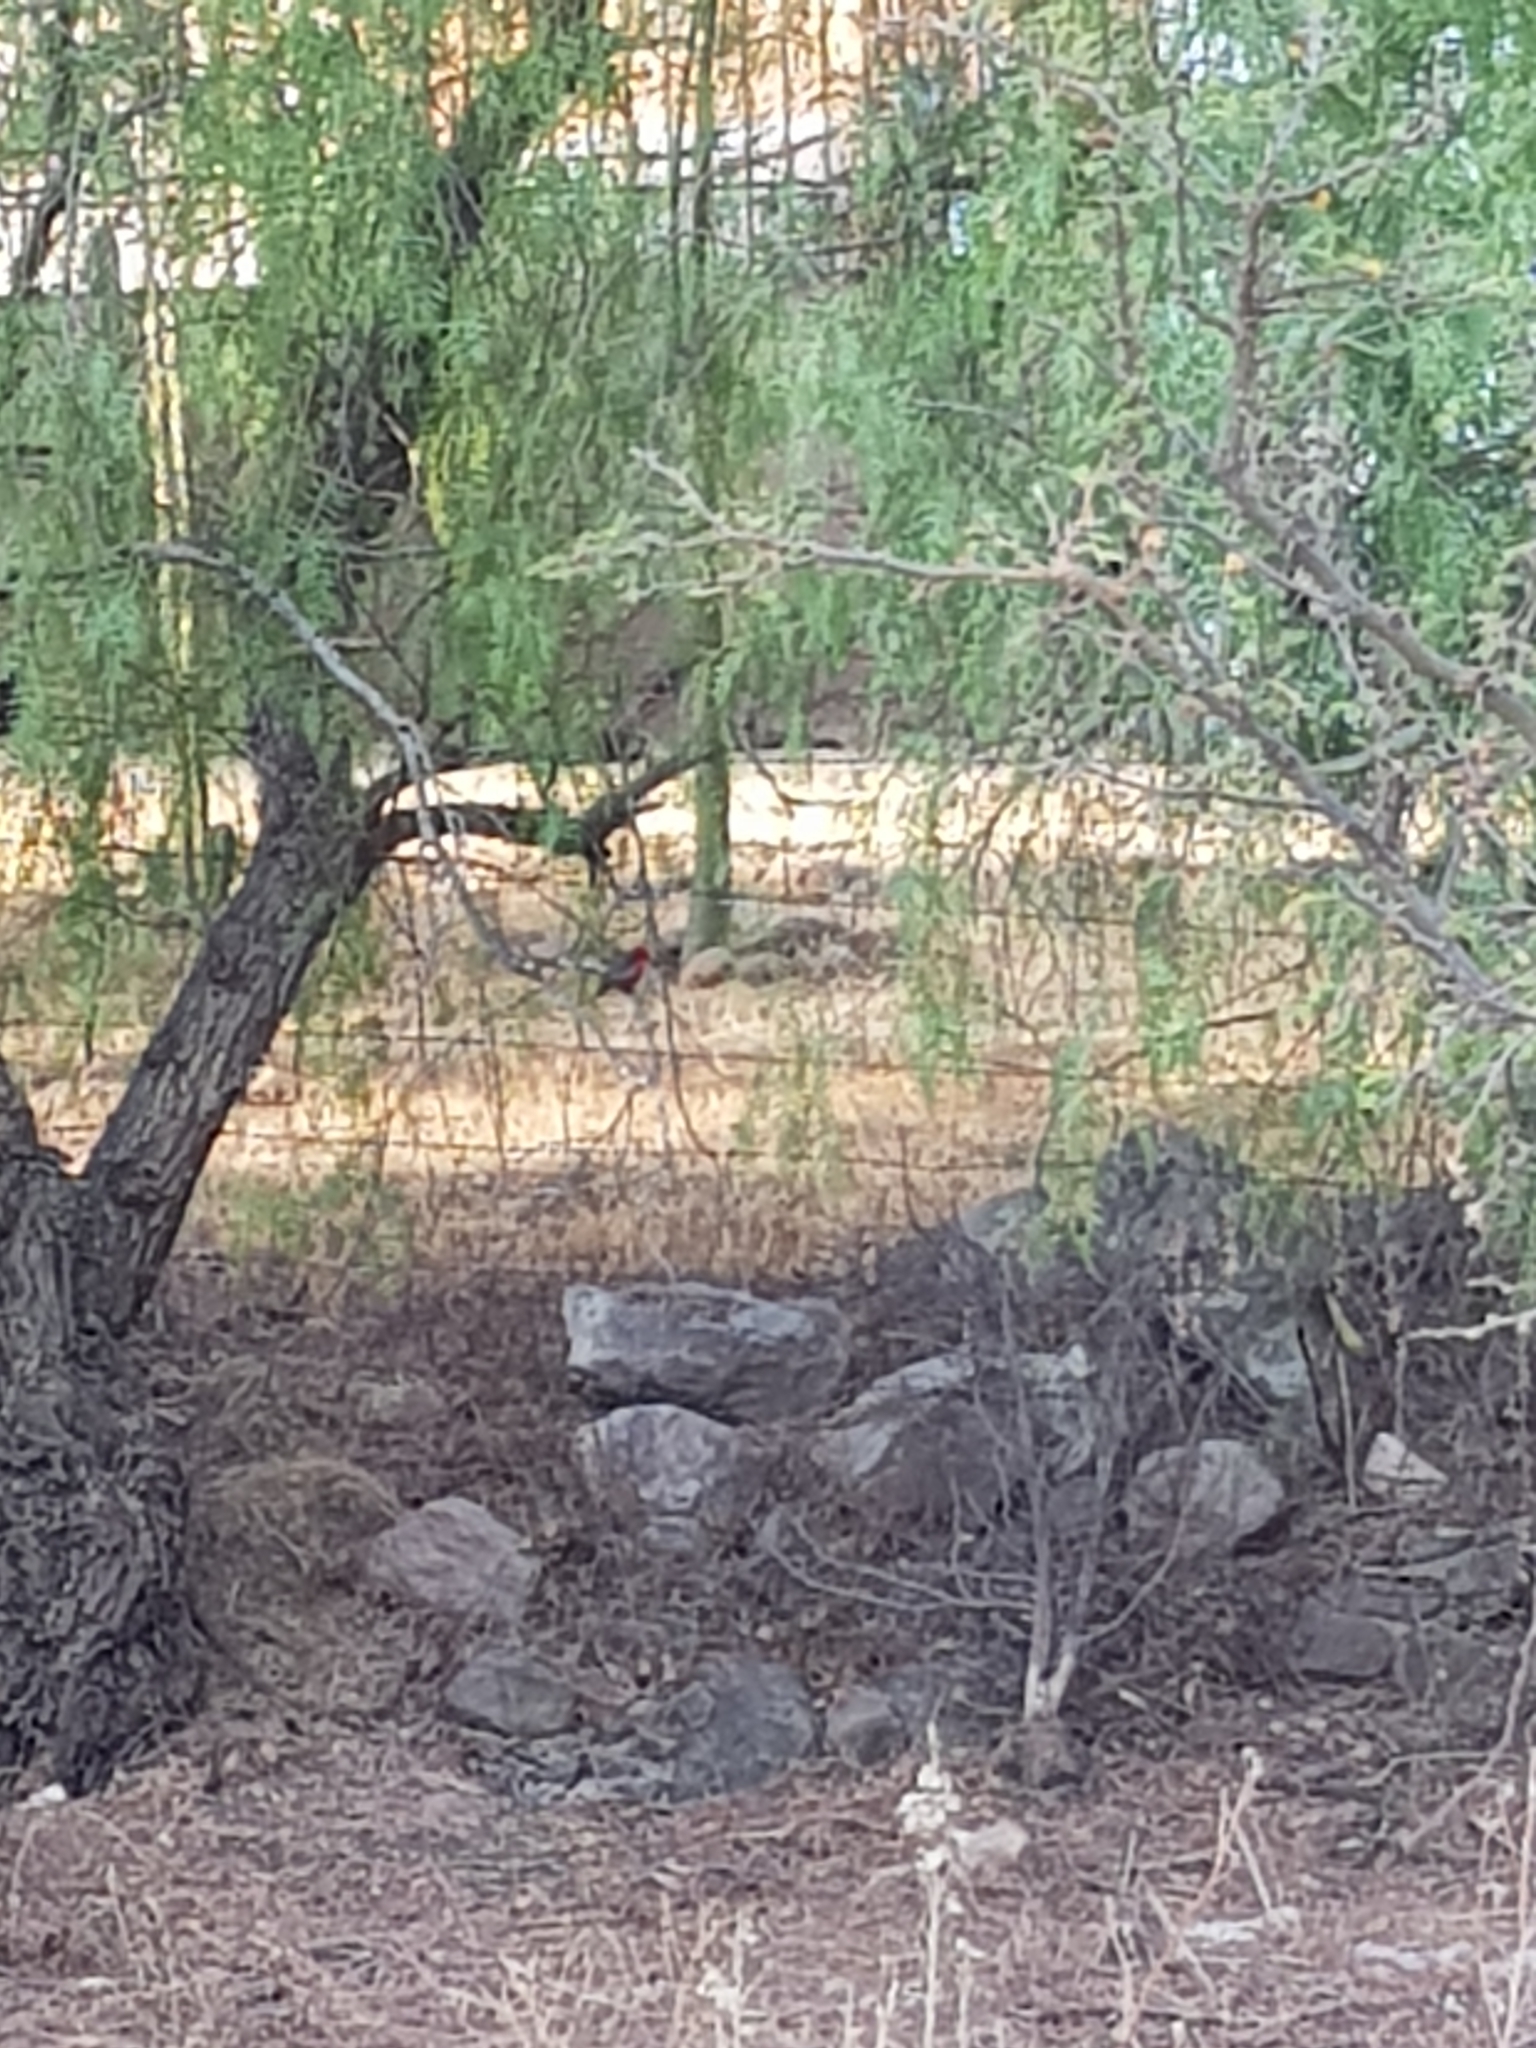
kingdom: Animalia
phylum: Chordata
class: Aves
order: Passeriformes
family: Tyrannidae
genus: Pyrocephalus
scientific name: Pyrocephalus rubinus
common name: Vermilion flycatcher
